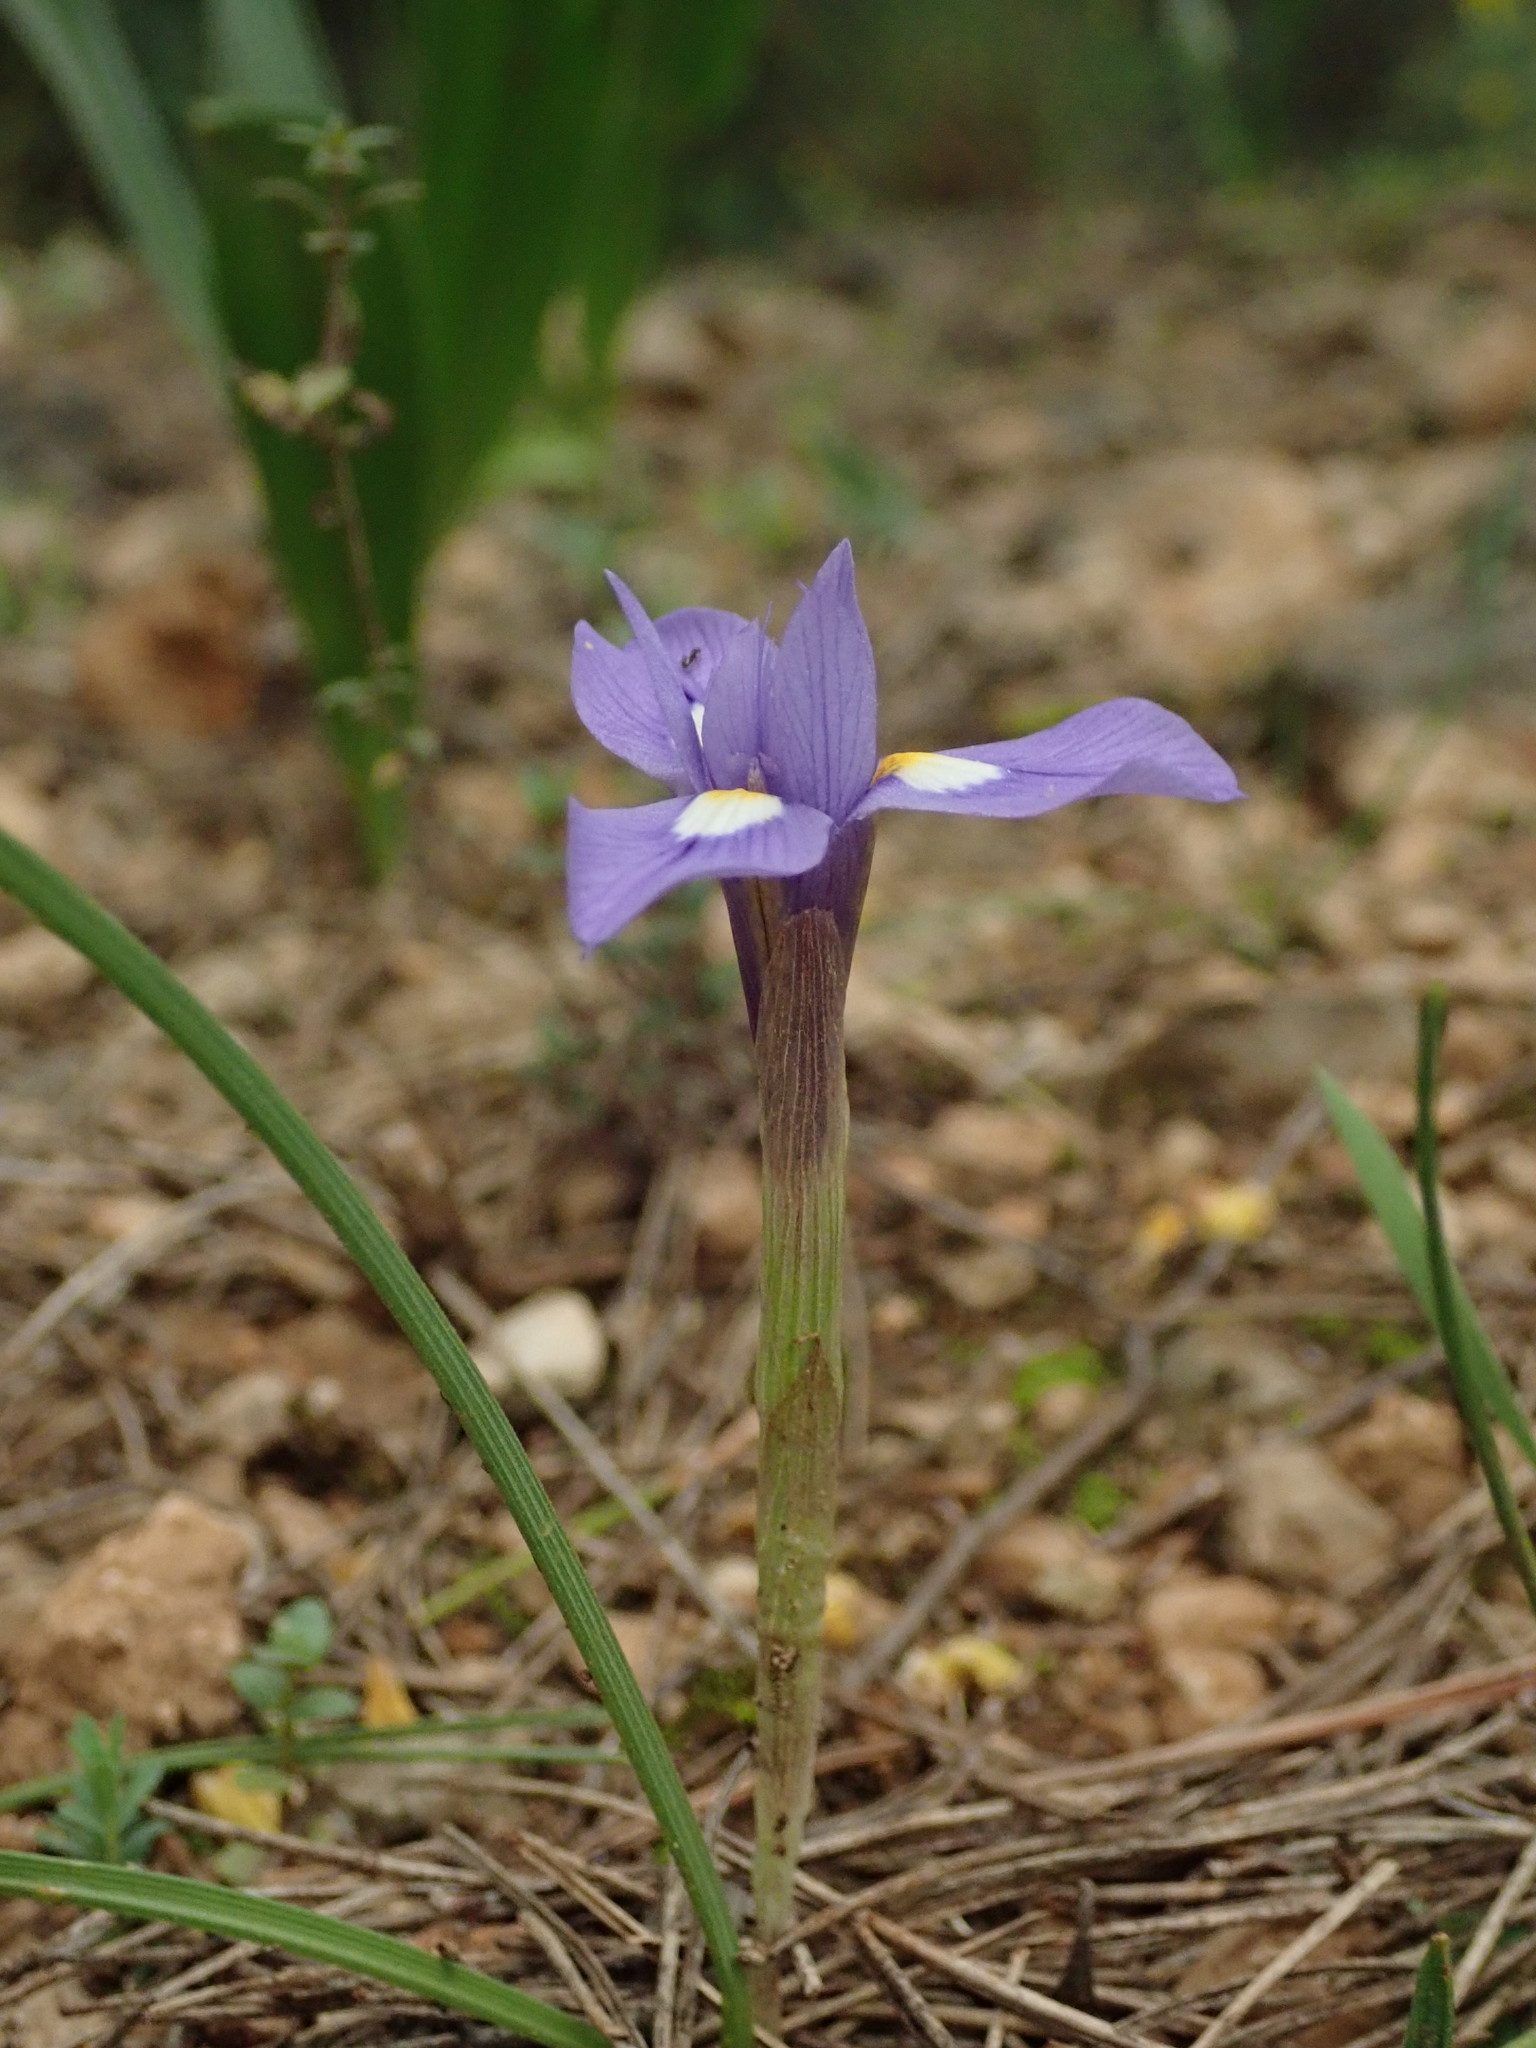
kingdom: Plantae
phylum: Tracheophyta
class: Liliopsida
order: Asparagales
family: Iridaceae
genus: Moraea
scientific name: Moraea sisyrinchium
